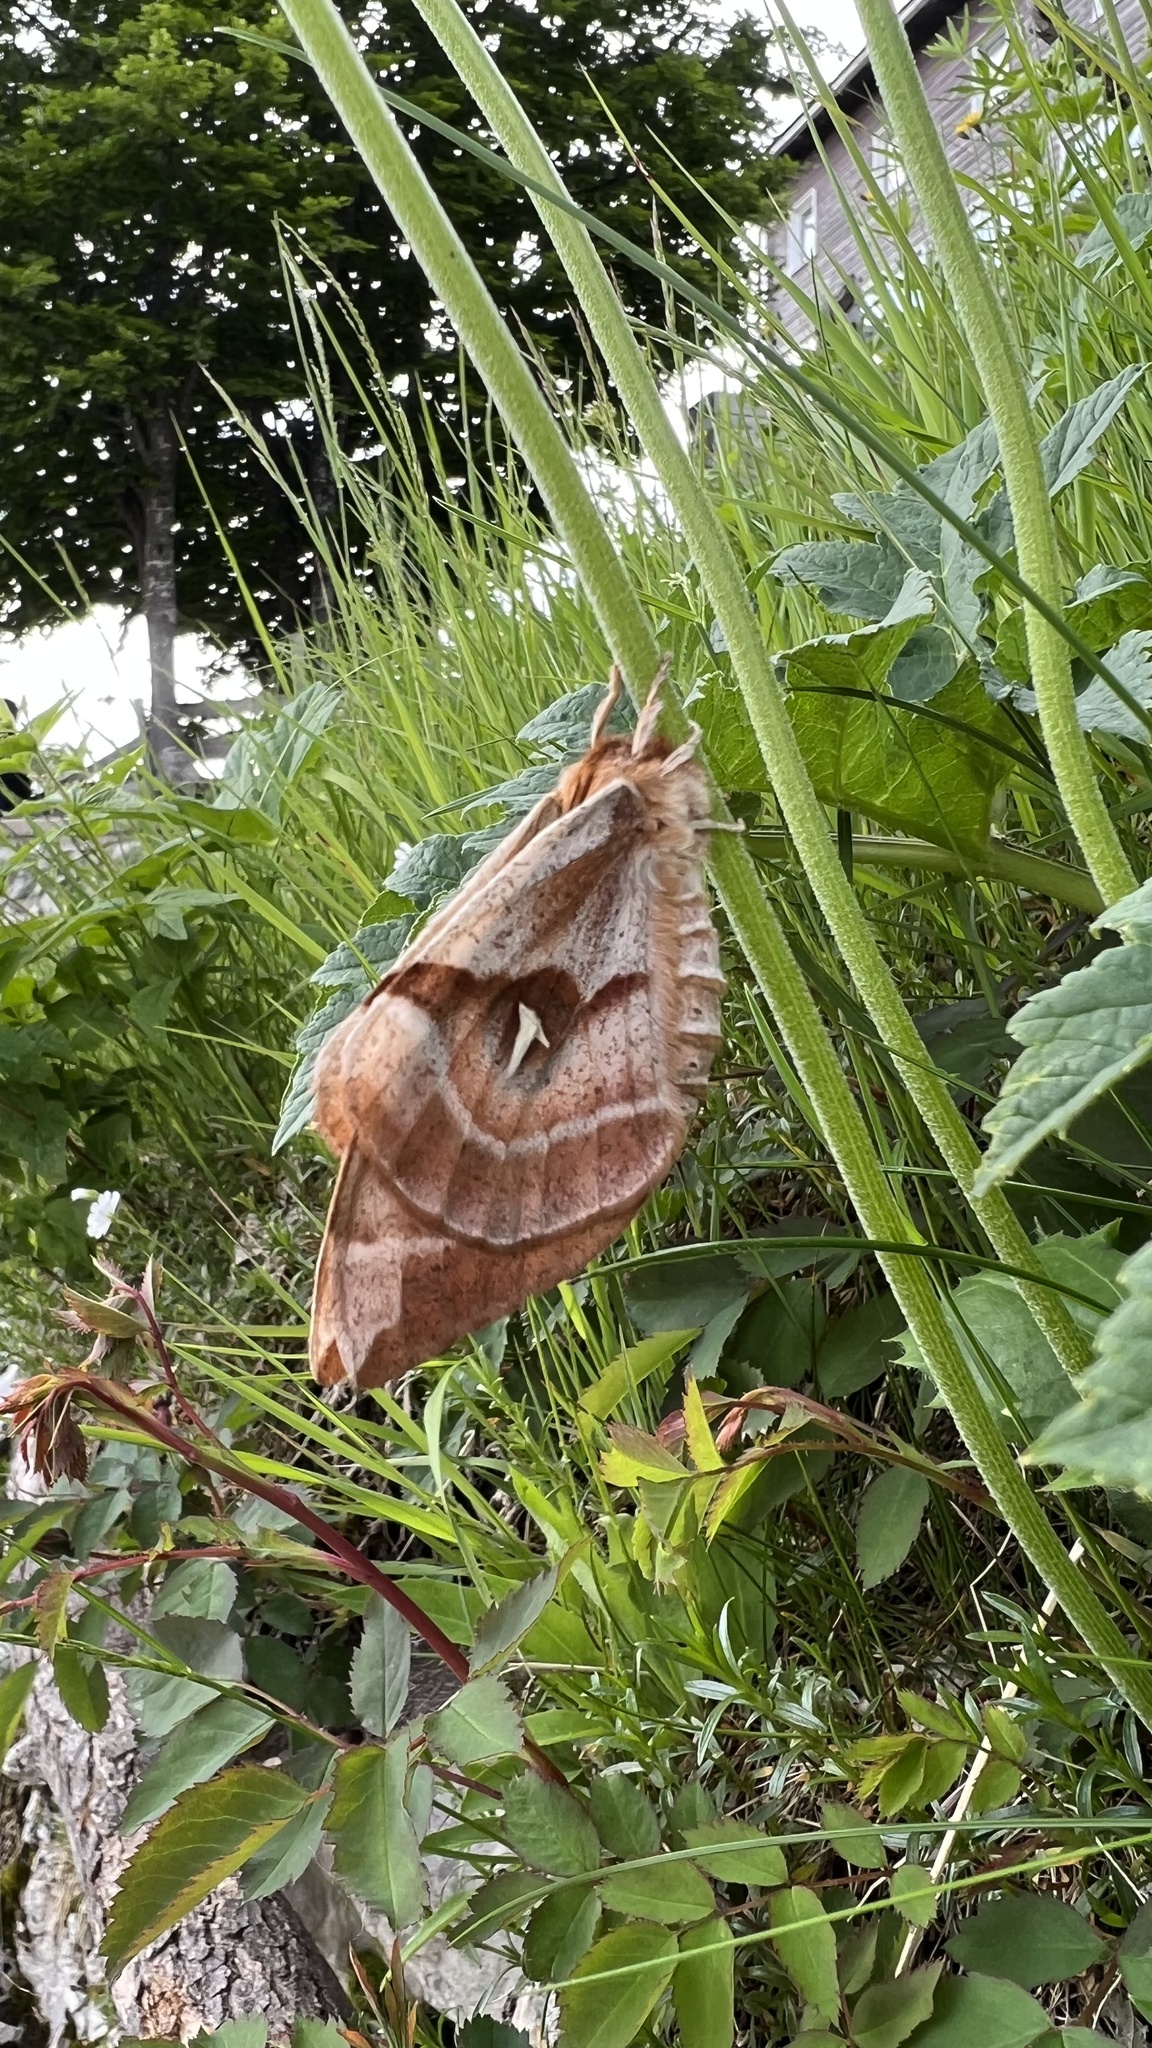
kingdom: Animalia
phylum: Arthropoda
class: Insecta
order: Lepidoptera
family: Saturniidae
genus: Aglia
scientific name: Aglia tau
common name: Tau emperor
